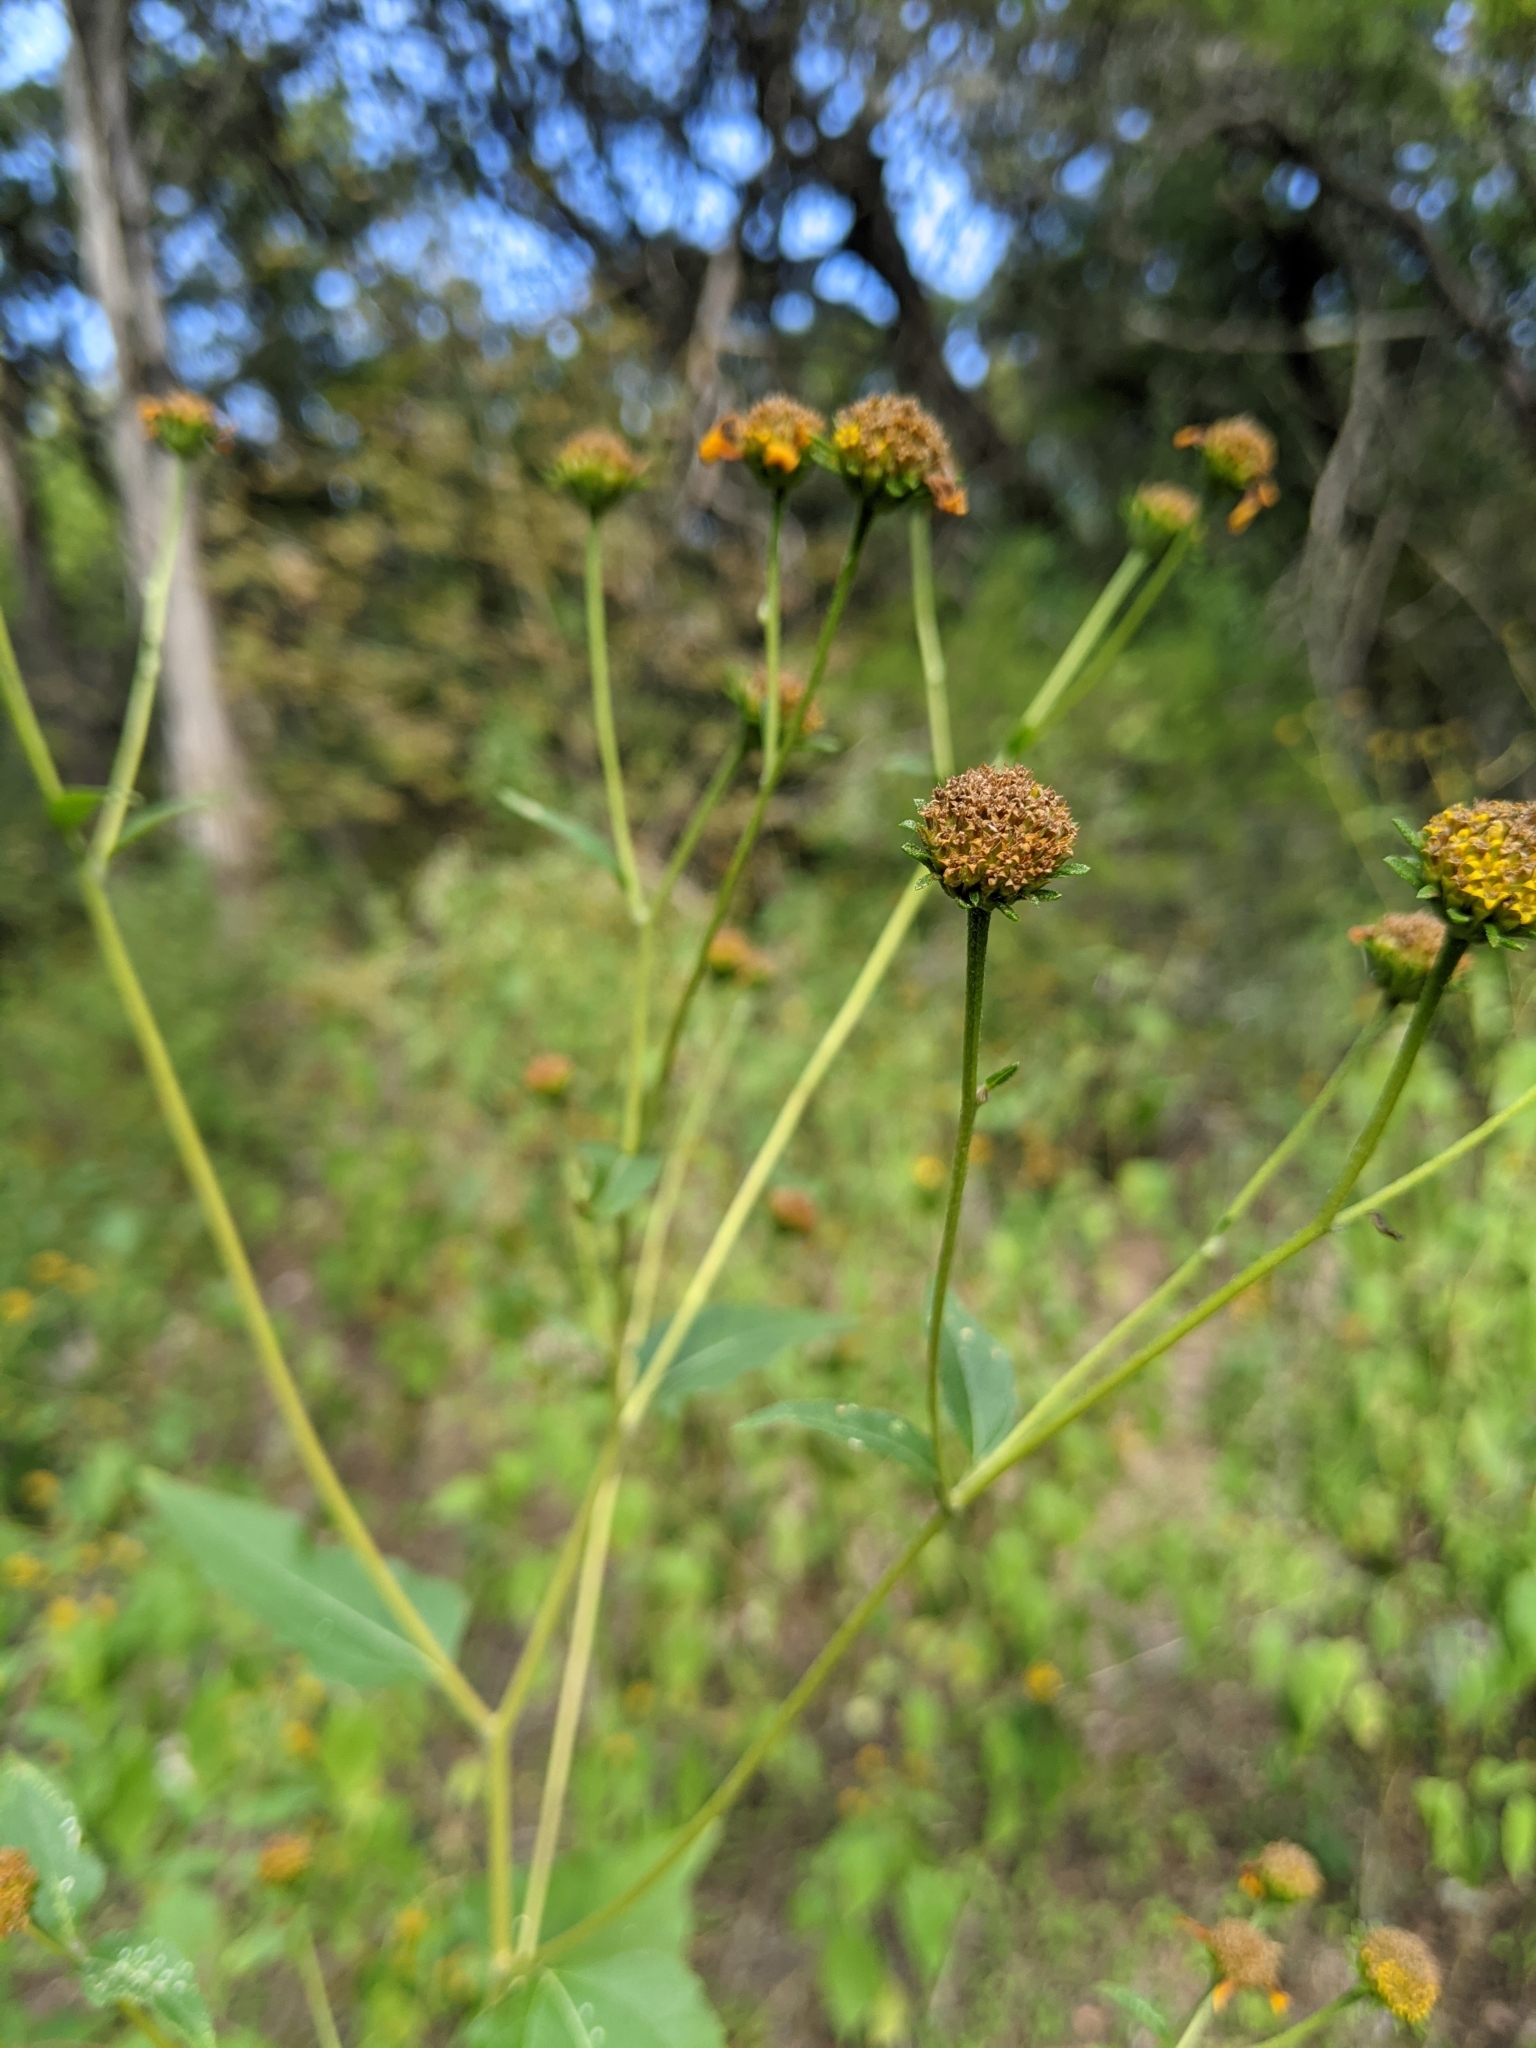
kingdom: Plantae
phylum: Tracheophyta
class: Magnoliopsida
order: Asterales
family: Asteraceae
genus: Viguiera
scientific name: Viguiera dentata
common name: Toothleaf
